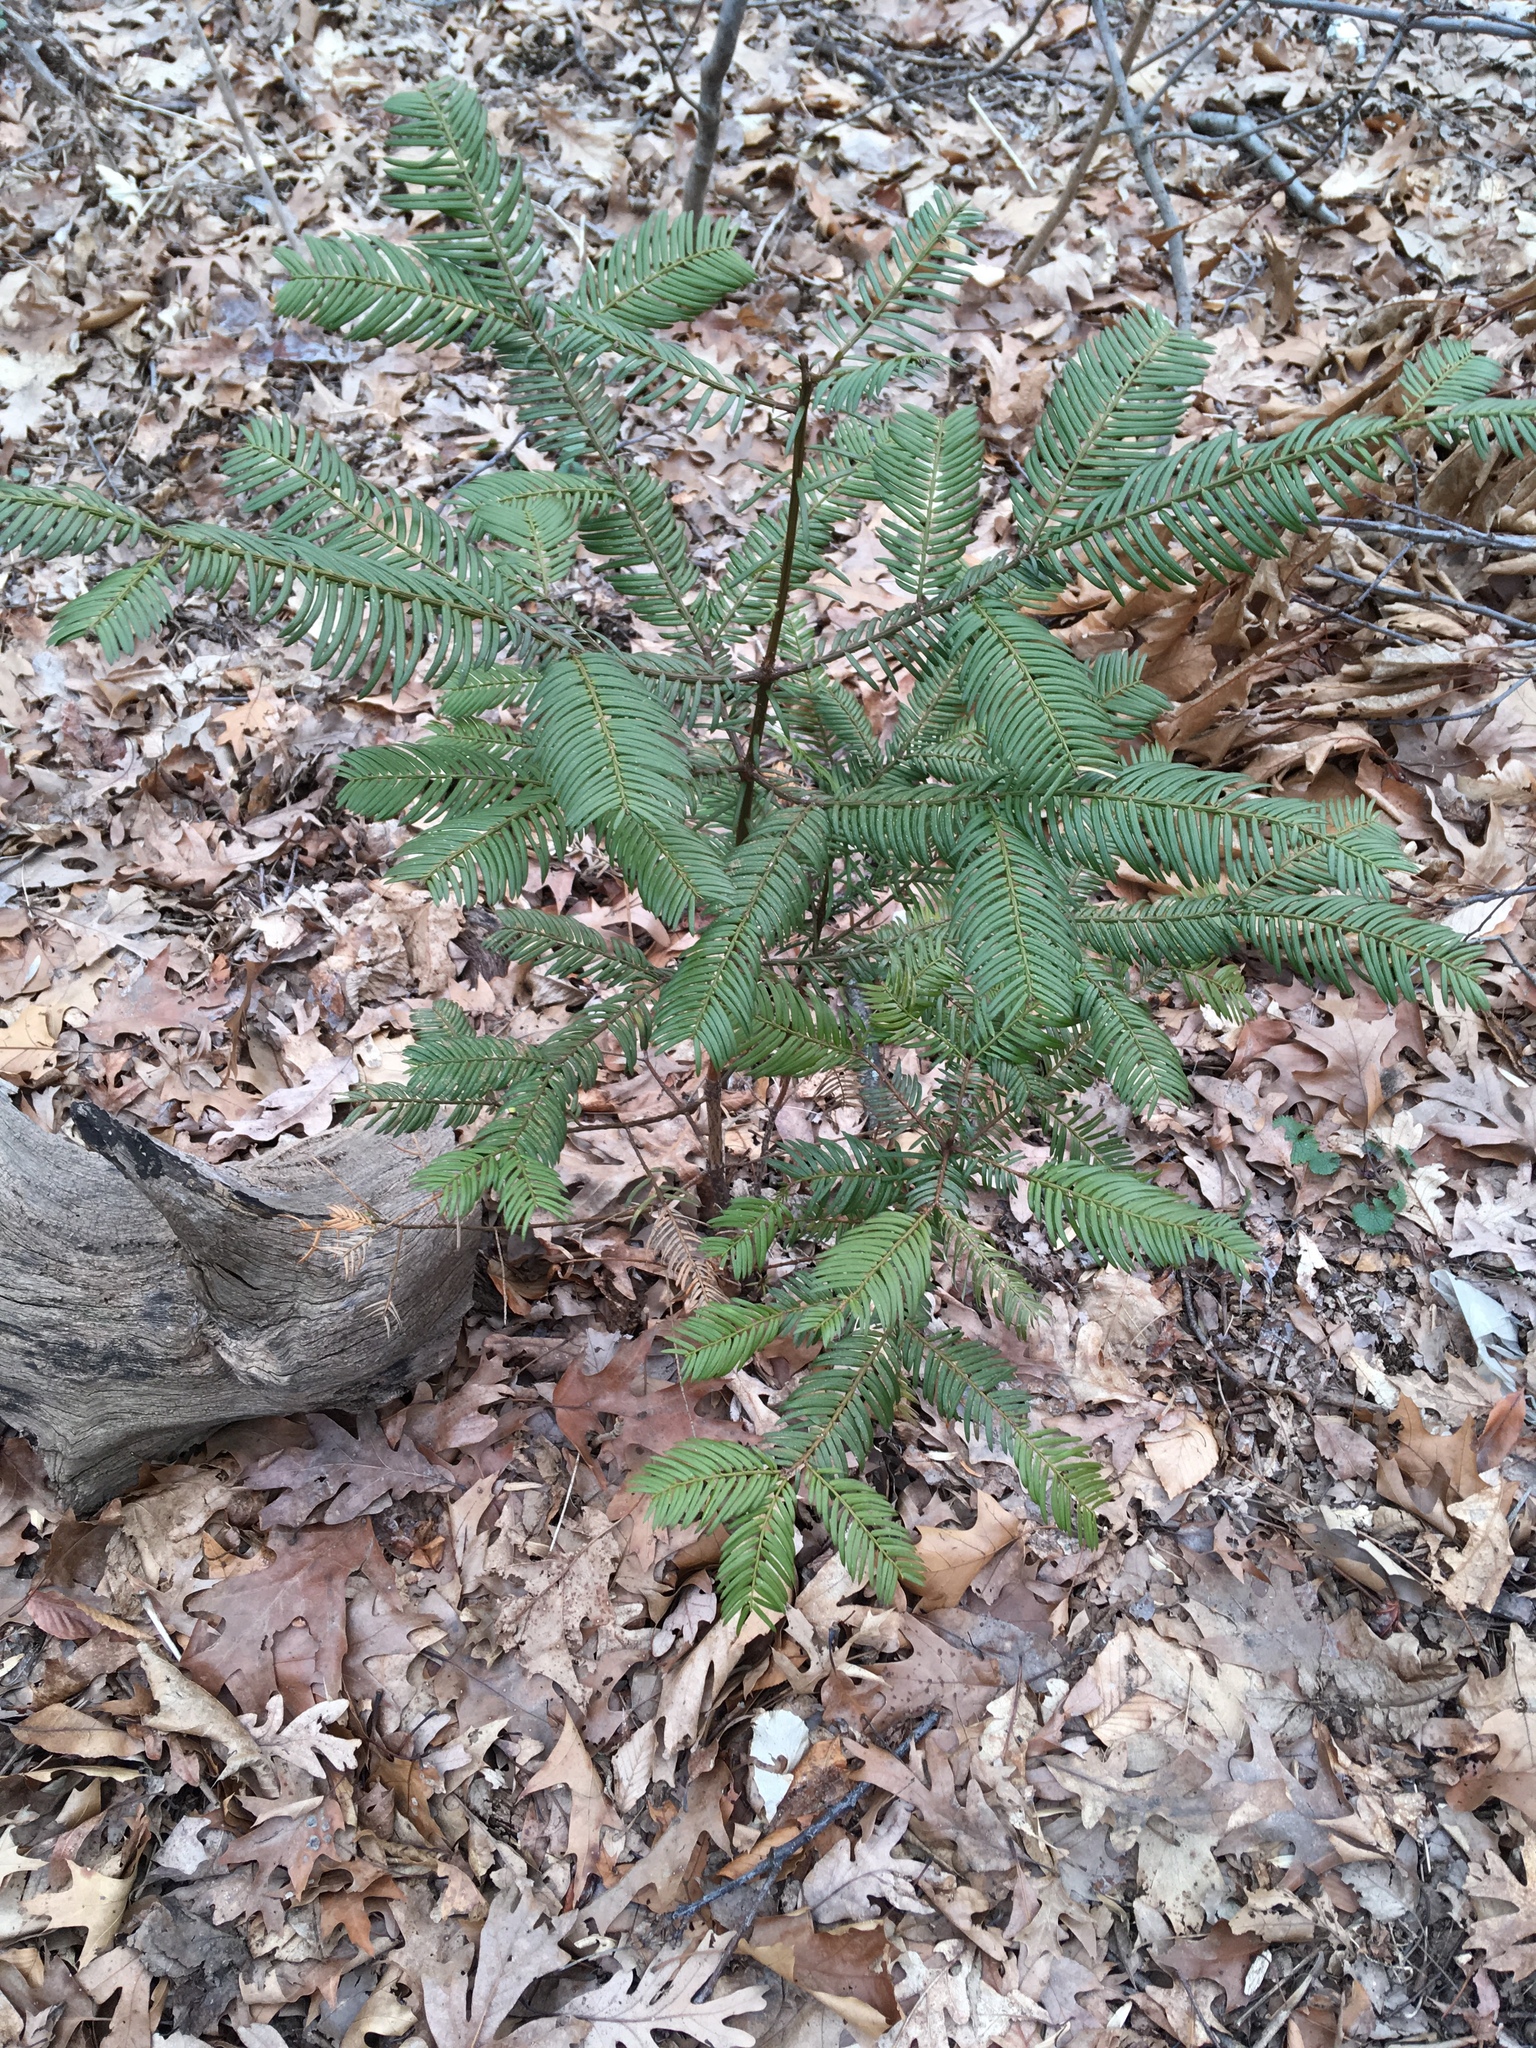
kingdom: Plantae
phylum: Tracheophyta
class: Pinopsida
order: Pinales
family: Cephalotaxaceae
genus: Cephalotaxus
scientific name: Cephalotaxus harringtonia
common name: Japanese plum-yew
